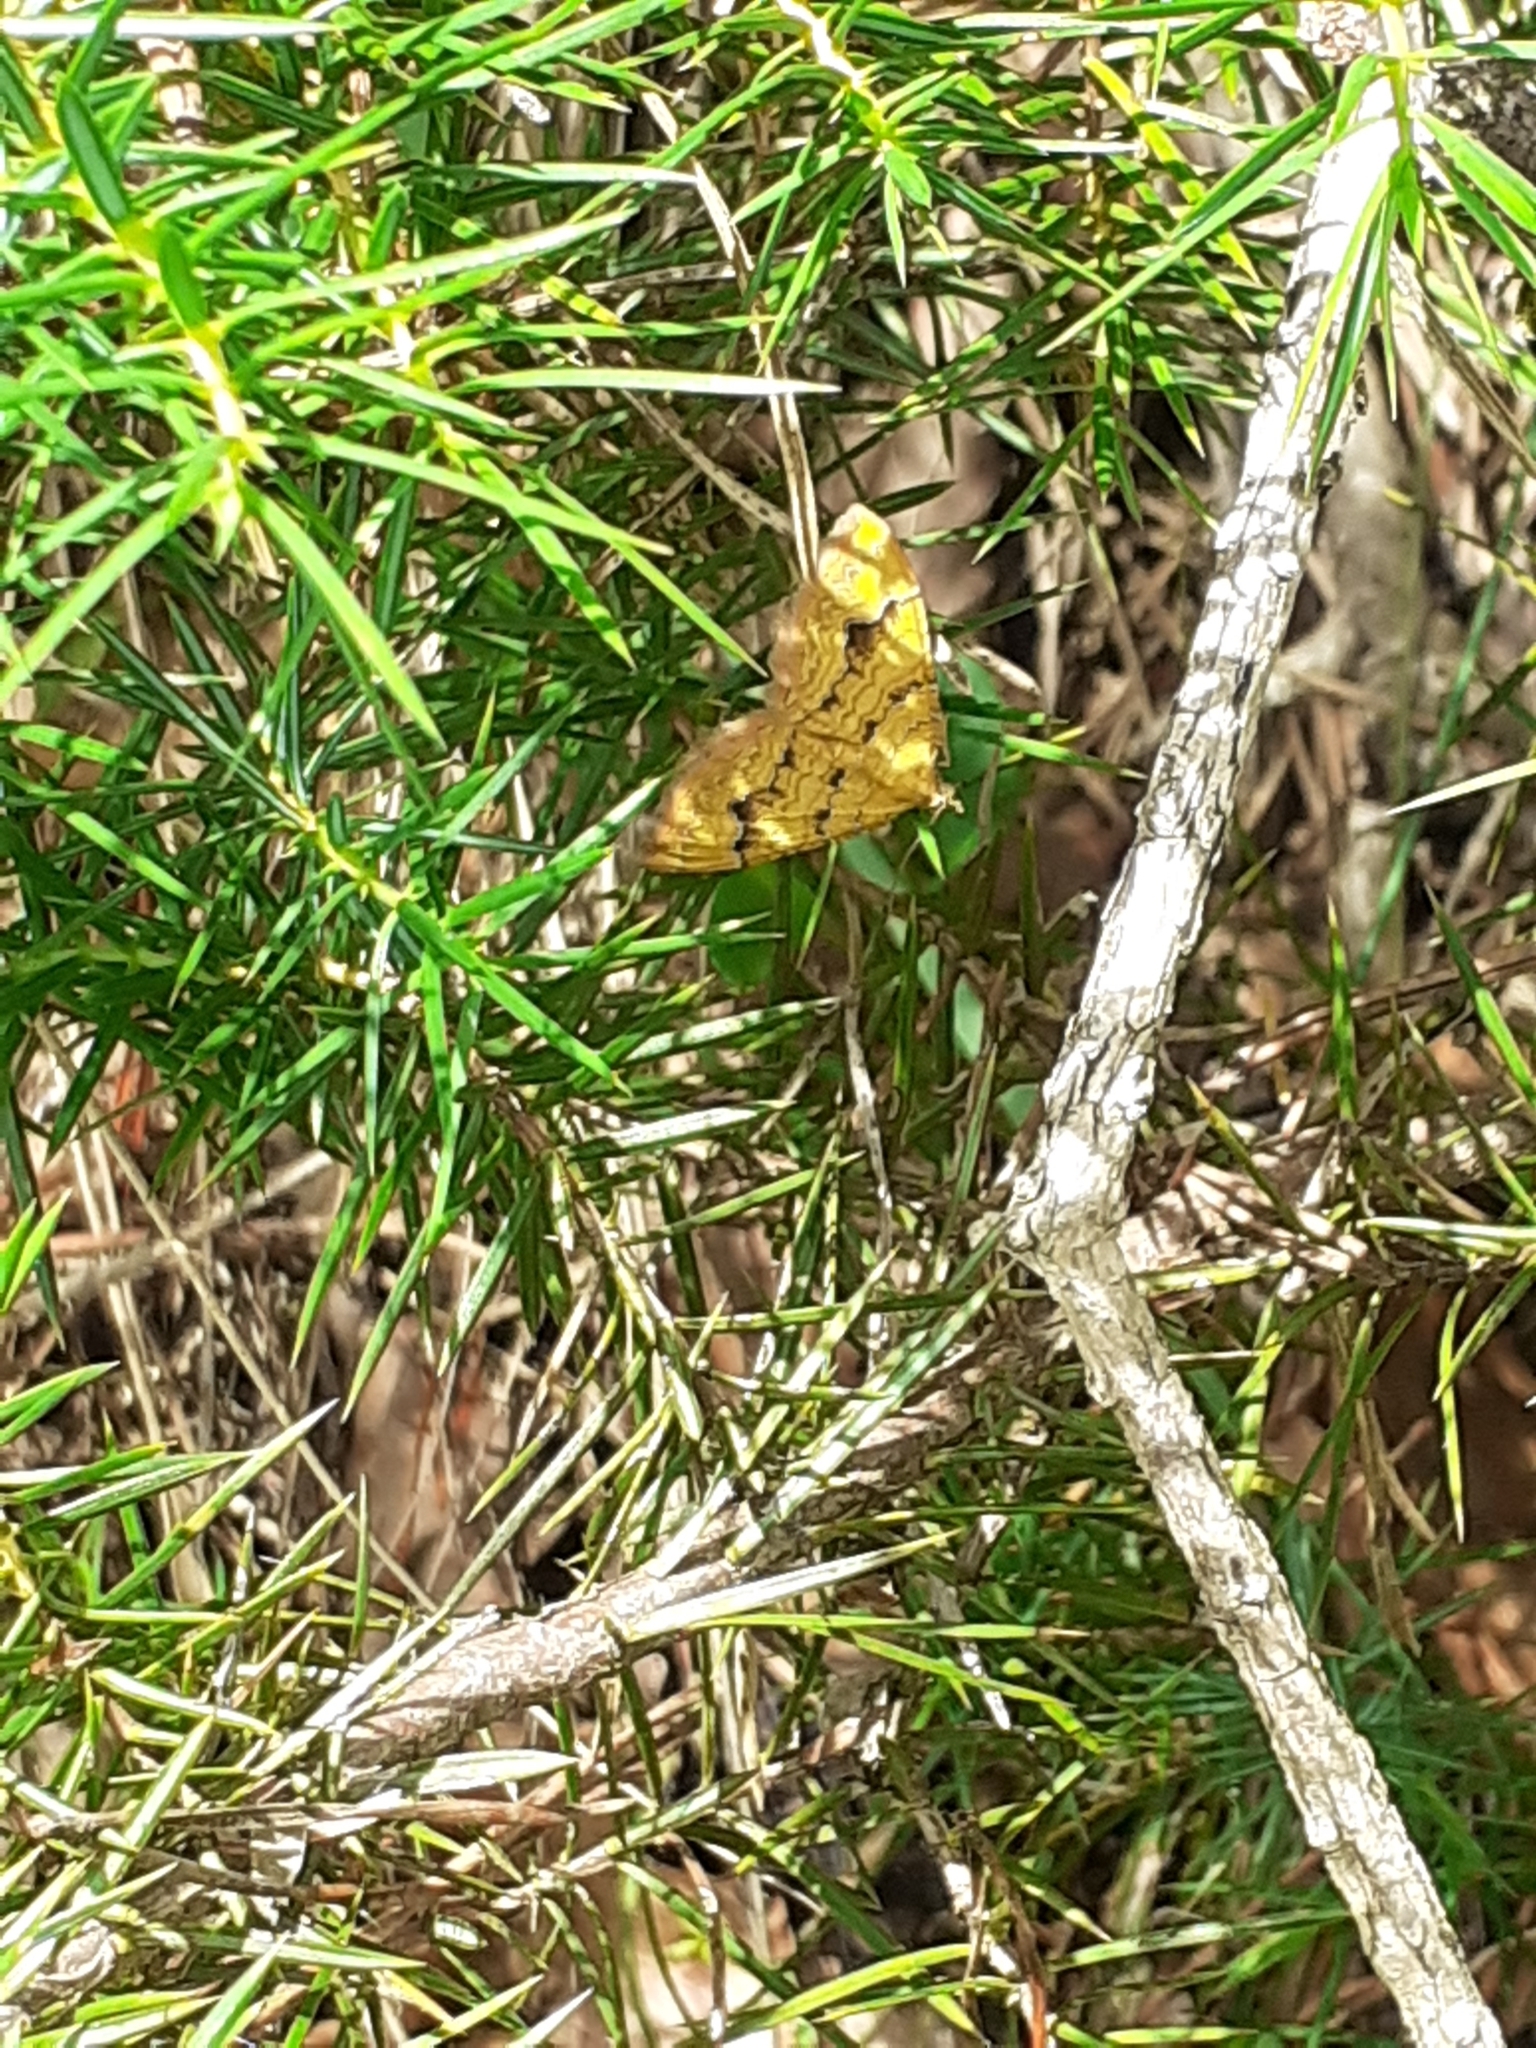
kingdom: Animalia
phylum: Arthropoda
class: Insecta
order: Lepidoptera
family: Geometridae
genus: Camptogramma
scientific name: Camptogramma bilineata
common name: Yellow shell
